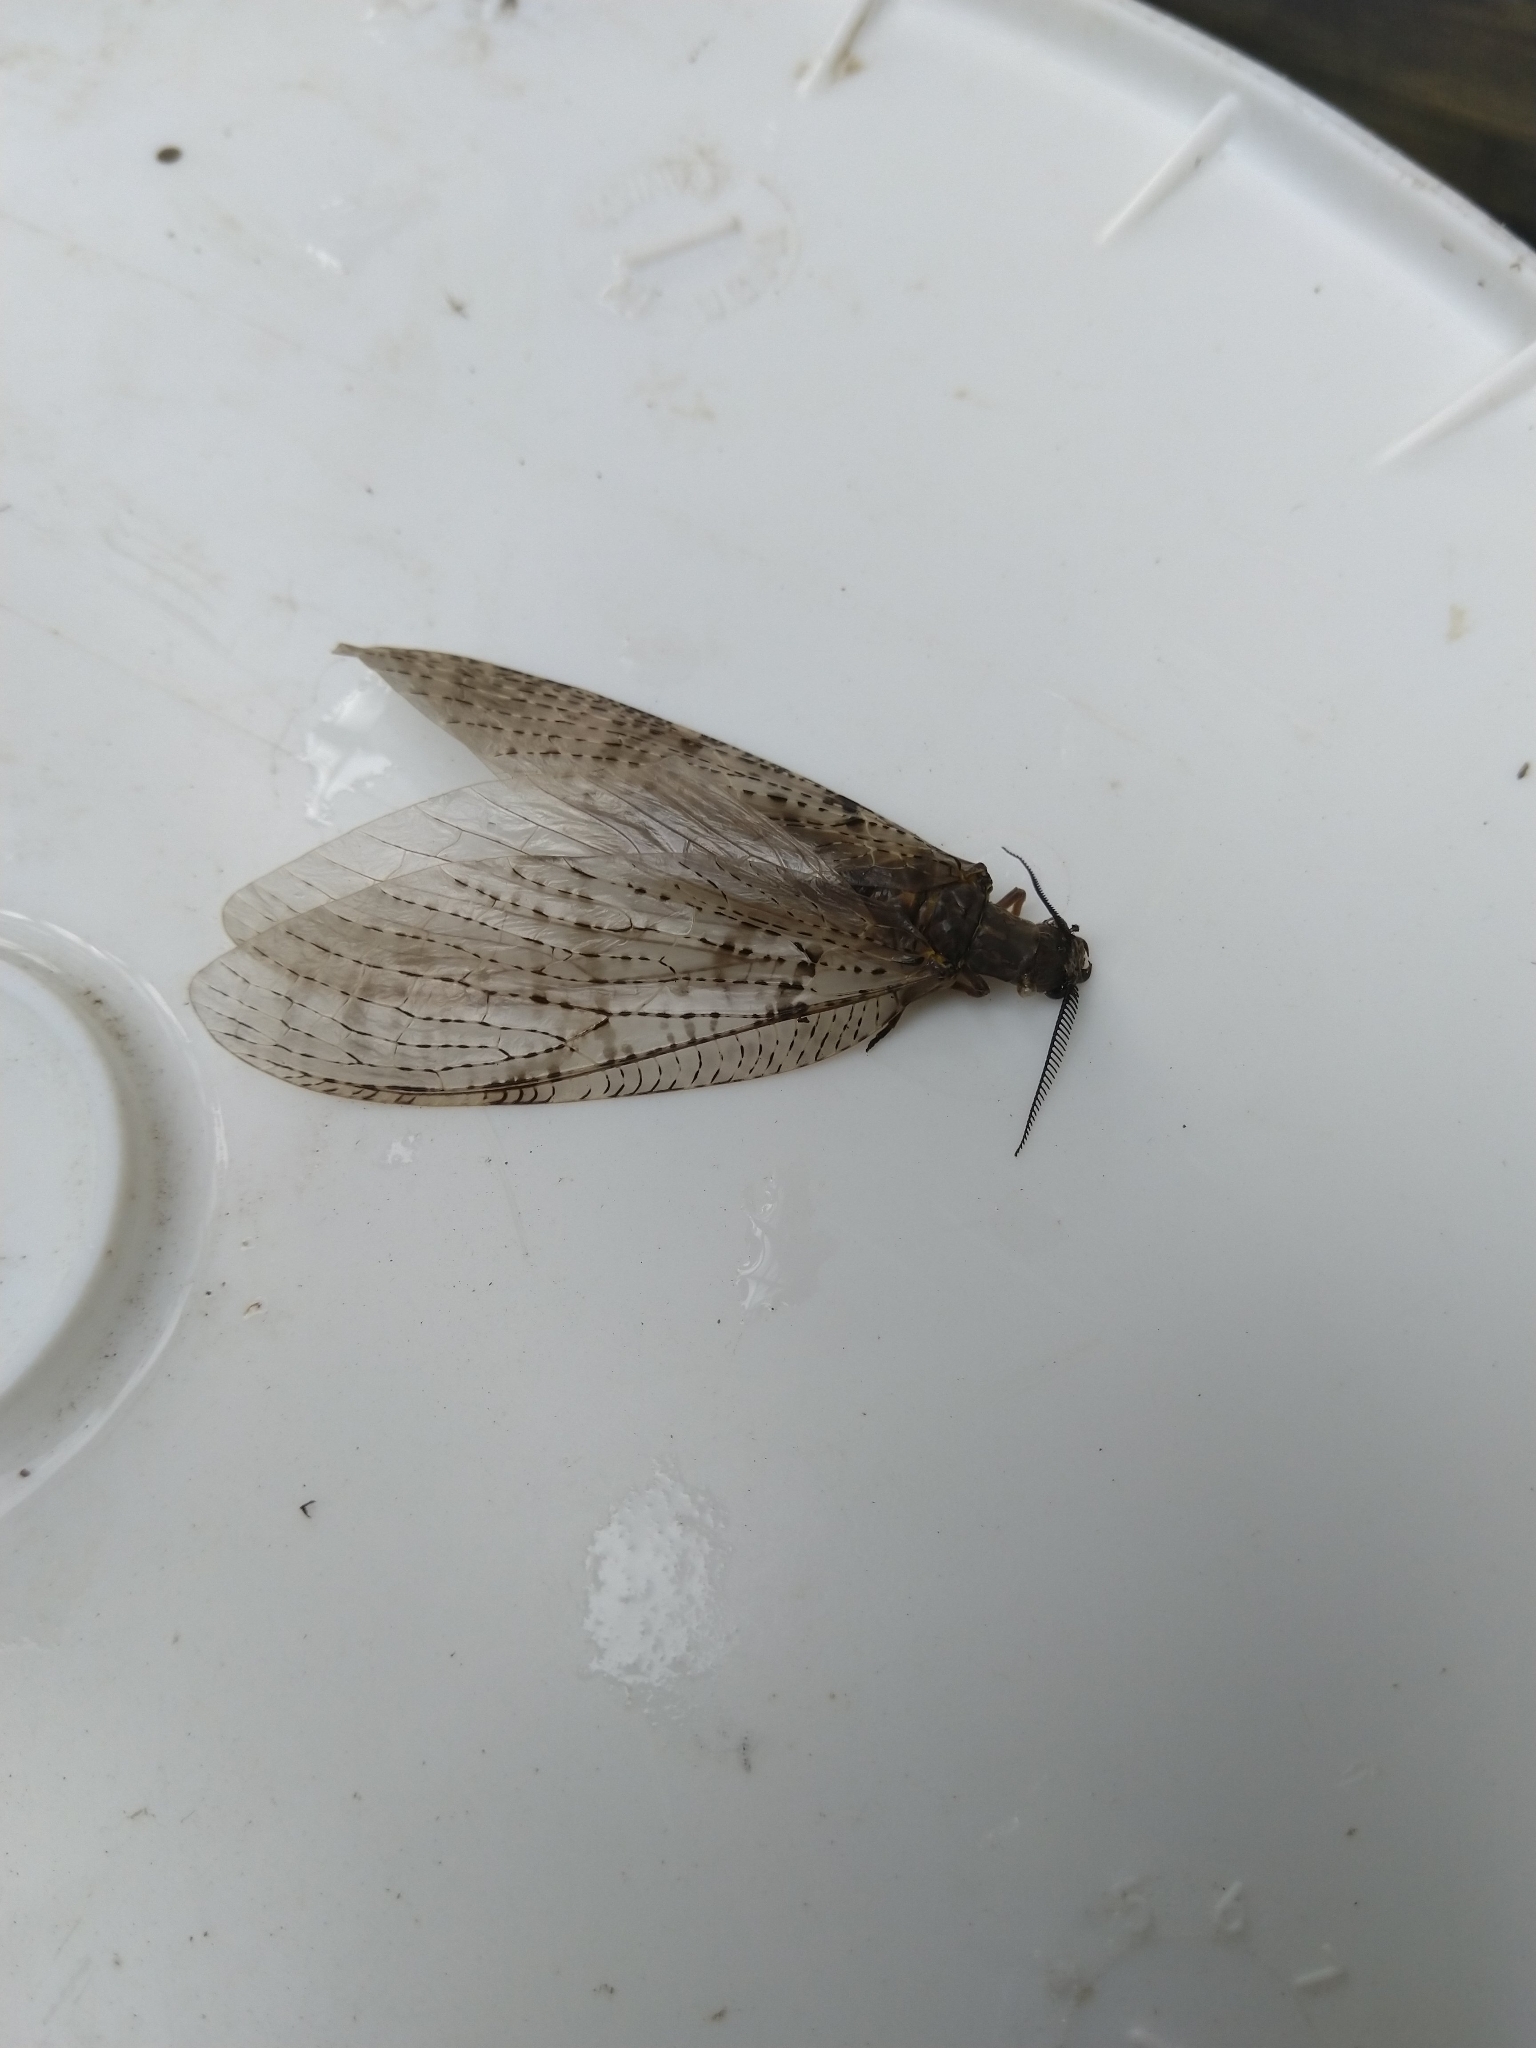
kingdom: Animalia
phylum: Arthropoda
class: Insecta
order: Megaloptera
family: Corydalidae
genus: Chauliodes
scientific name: Chauliodes pectinicornis
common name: Summer fishfly
